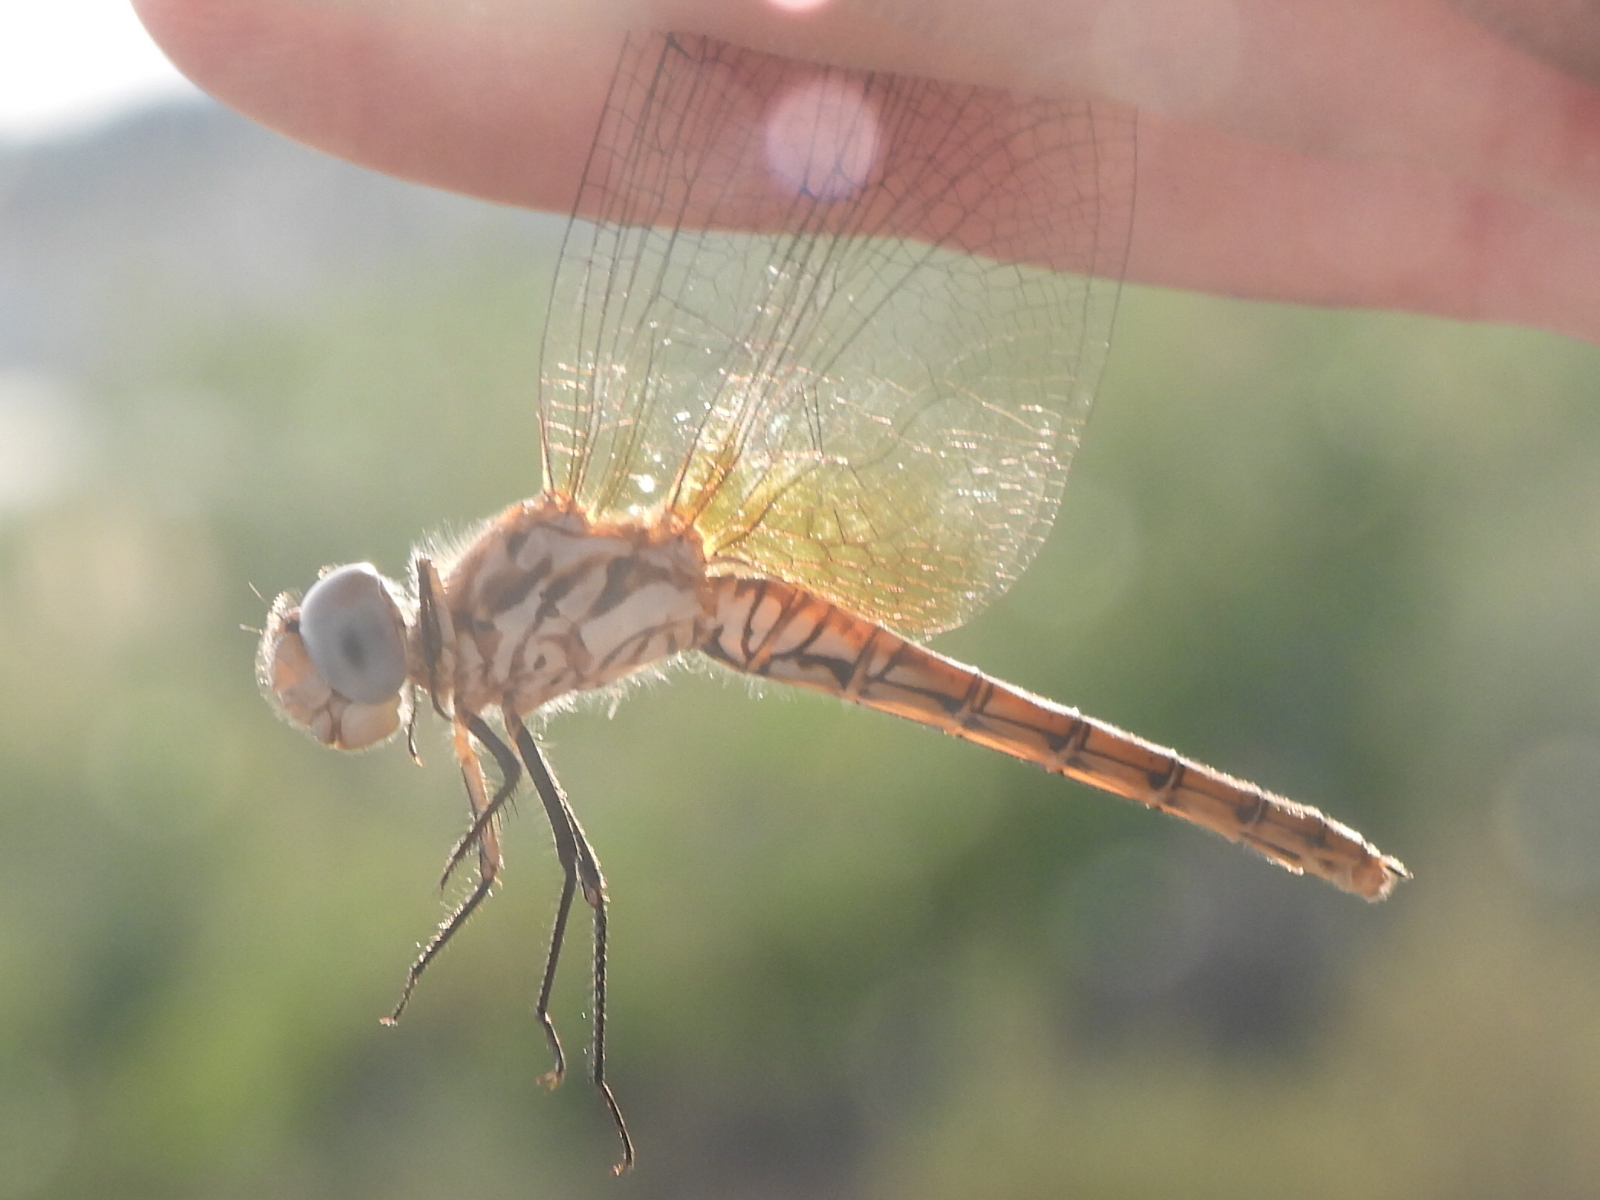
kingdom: Animalia
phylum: Arthropoda
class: Insecta
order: Odonata
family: Libellulidae
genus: Trithemis
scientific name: Trithemis annulata
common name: Violet dropwing
